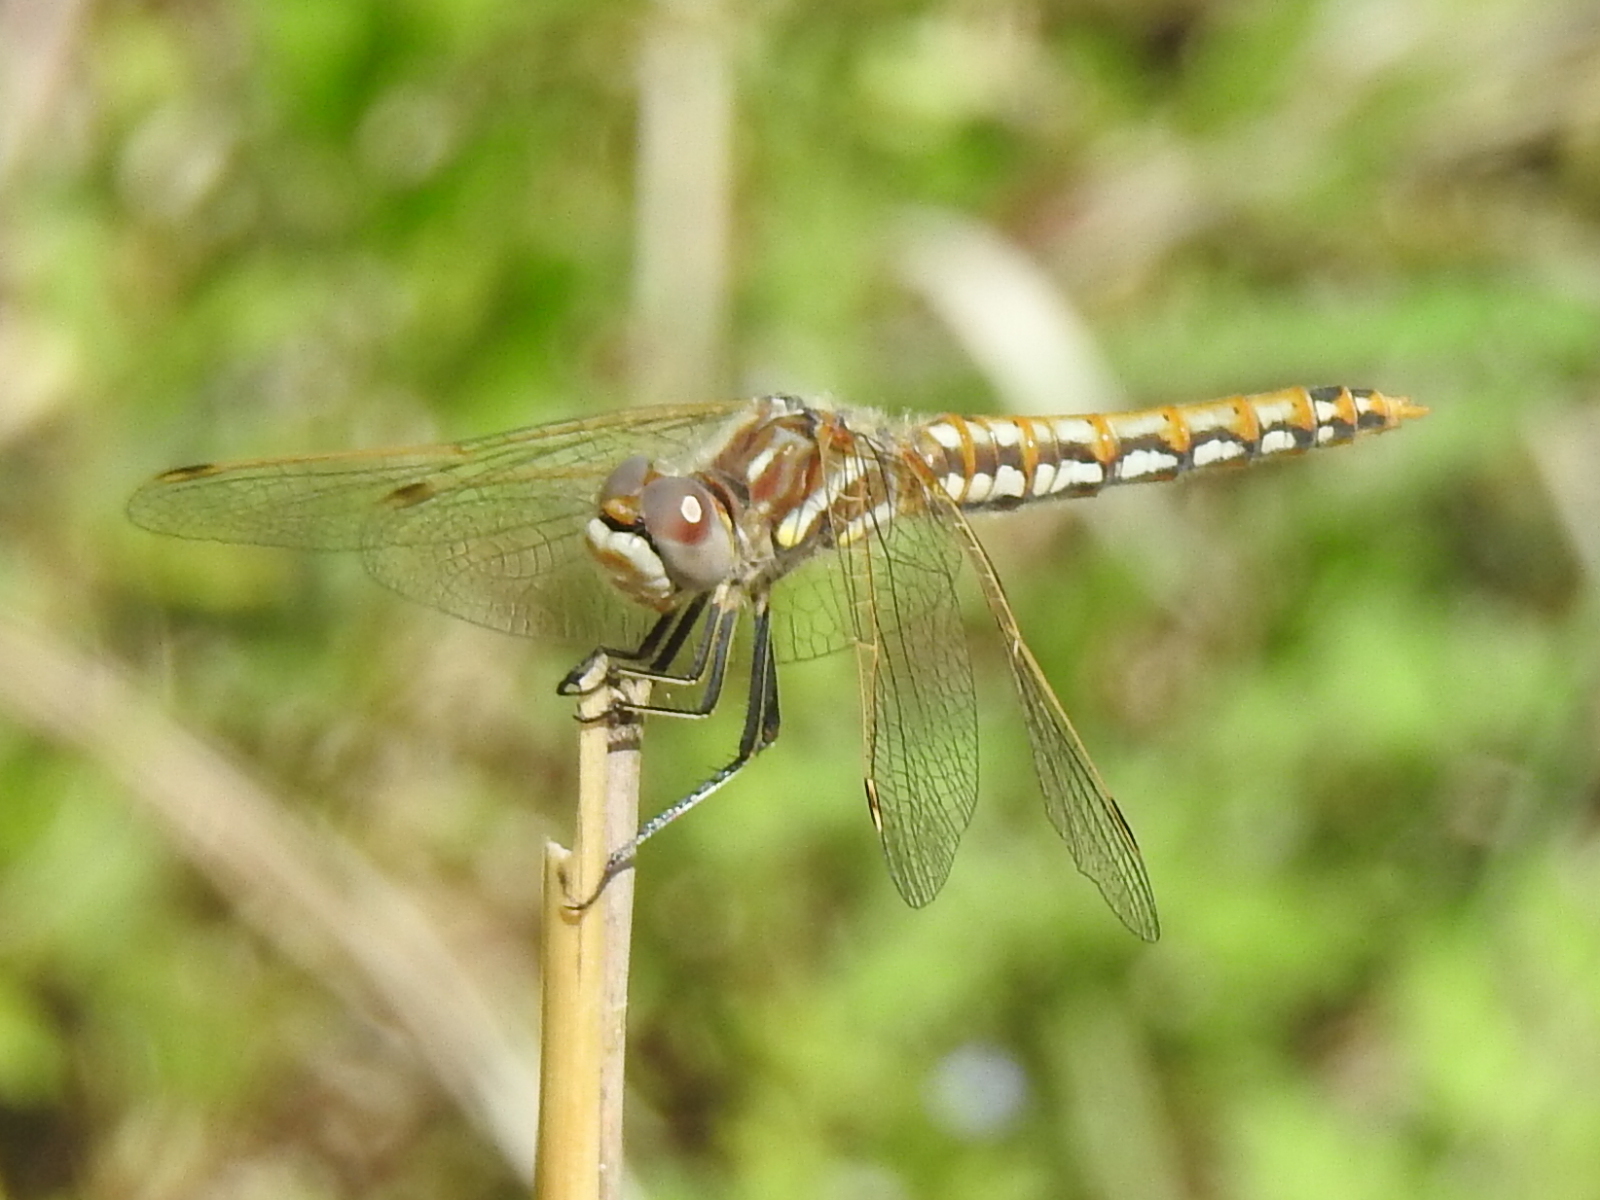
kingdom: Animalia
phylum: Arthropoda
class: Insecta
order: Odonata
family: Libellulidae
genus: Sympetrum
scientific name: Sympetrum corruptum
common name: Variegated meadowhawk
